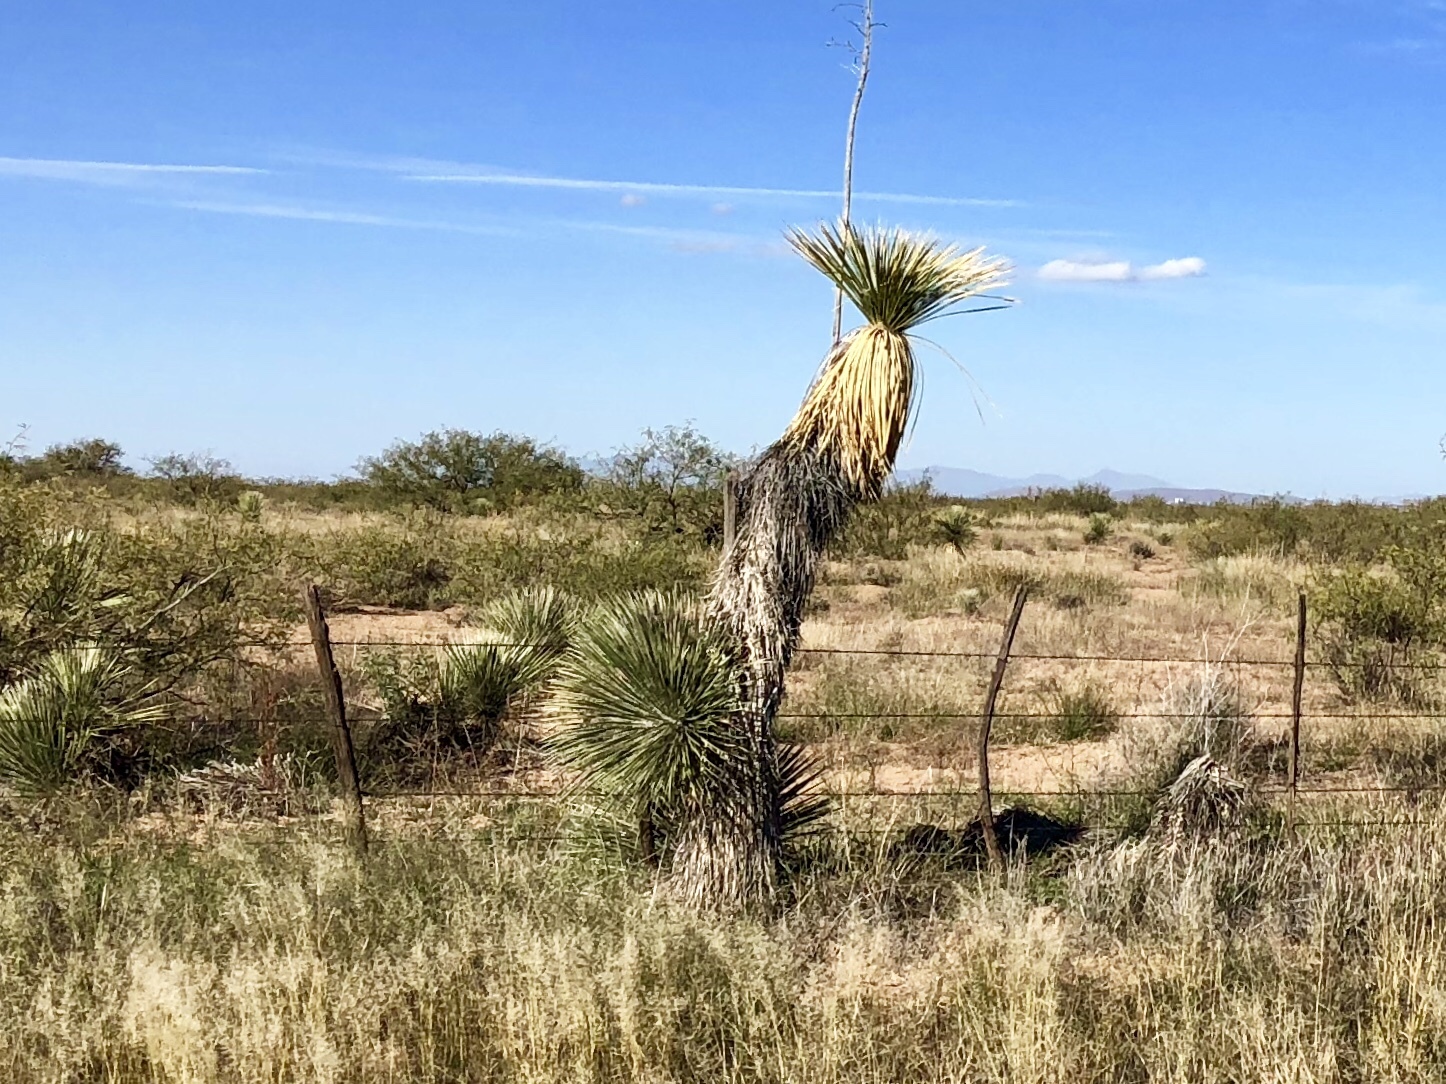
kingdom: Plantae
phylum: Tracheophyta
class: Liliopsida
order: Asparagales
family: Asparagaceae
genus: Yucca
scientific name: Yucca elata
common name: Palmella
